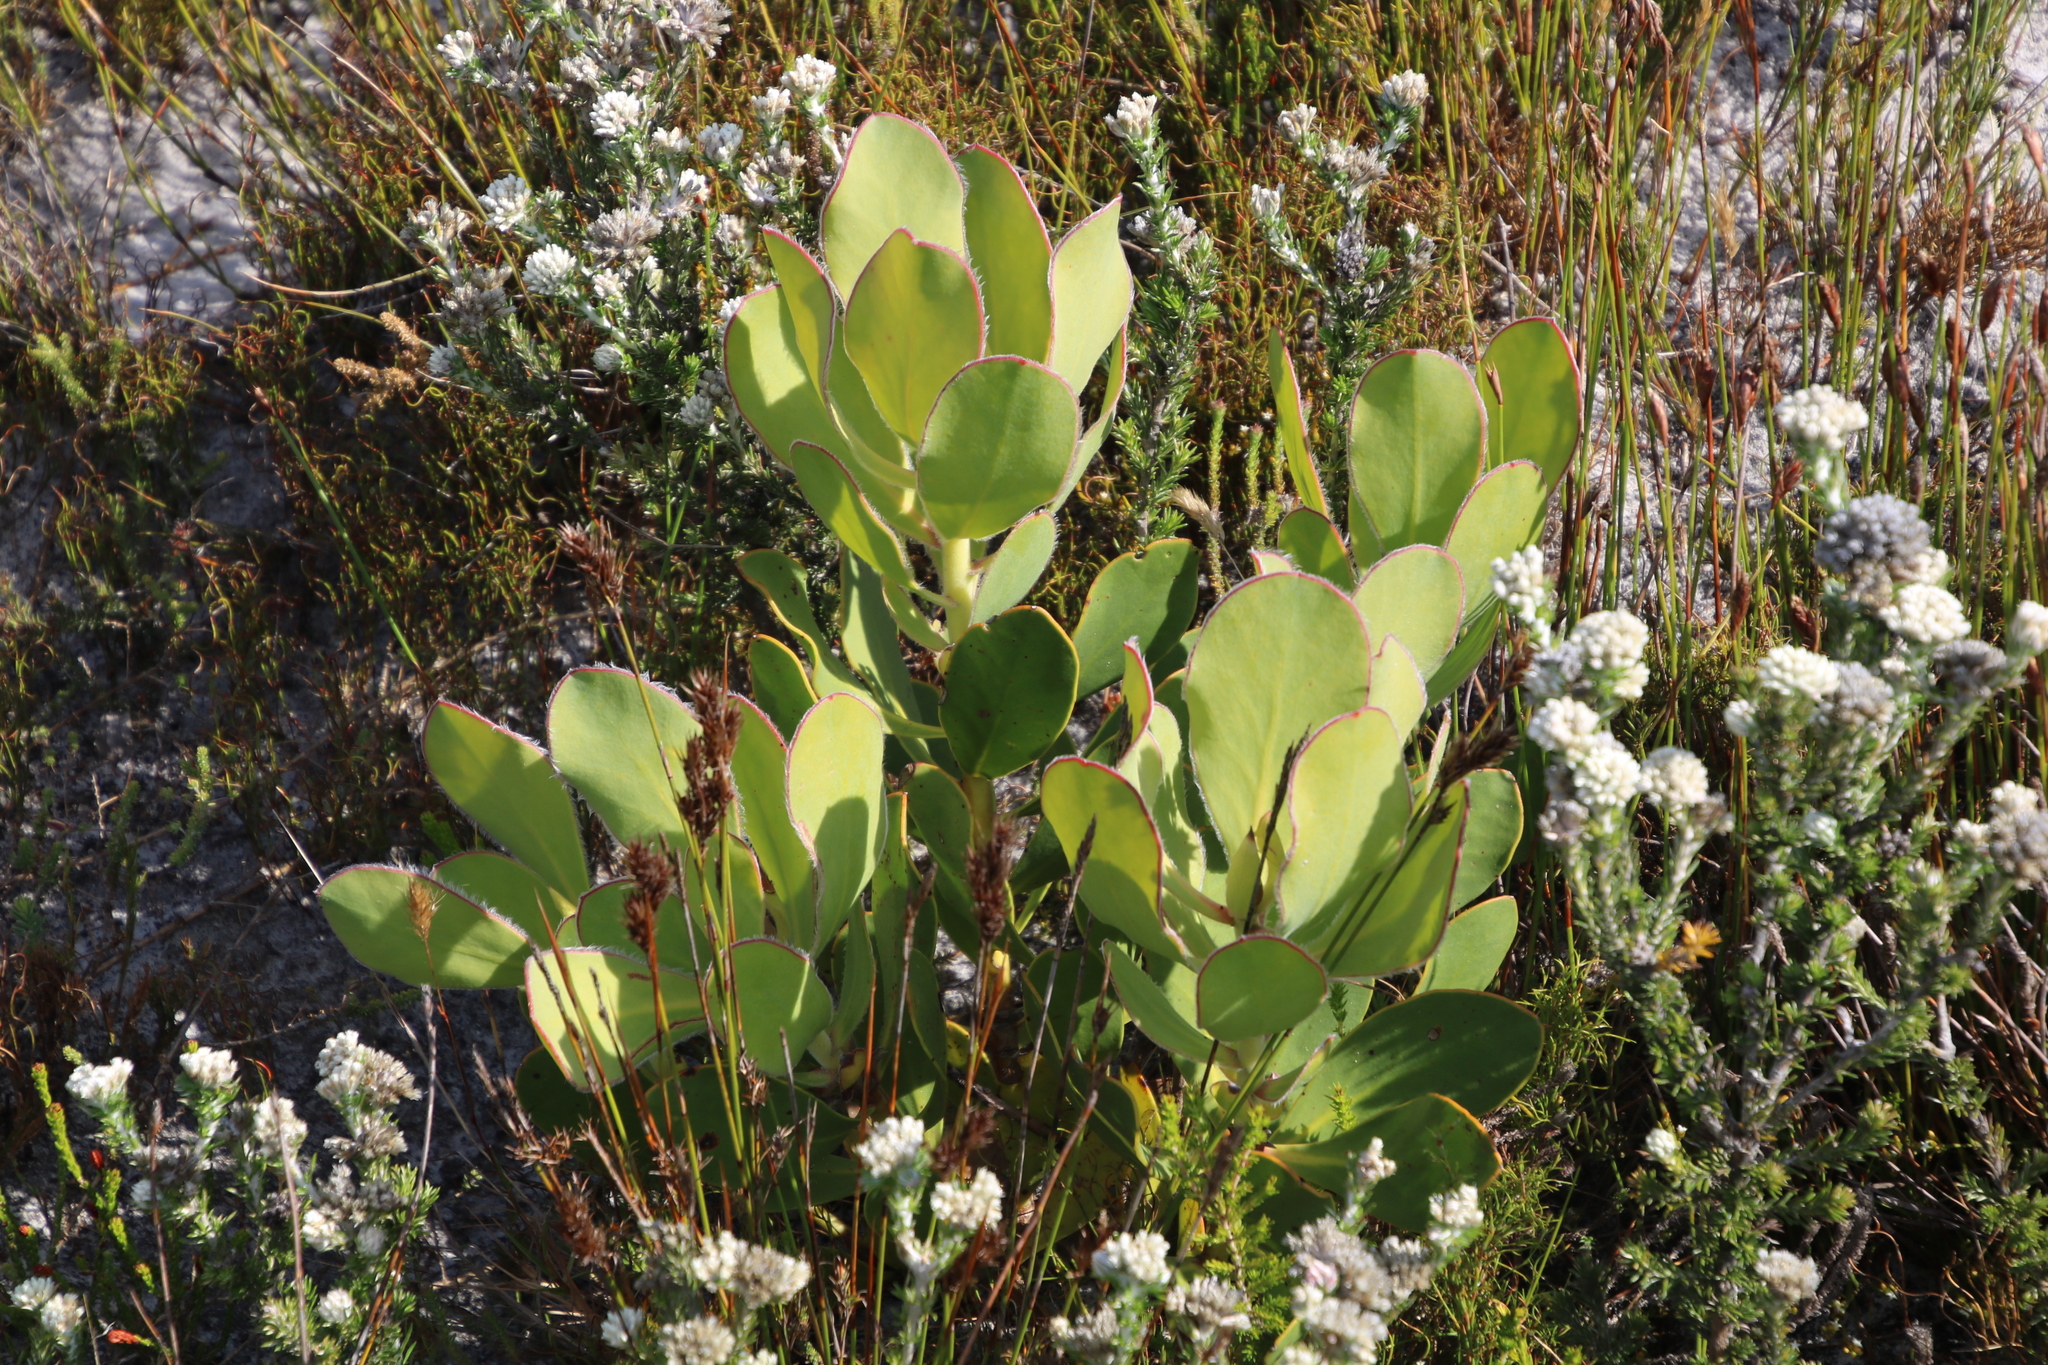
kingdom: Plantae
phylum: Tracheophyta
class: Magnoliopsida
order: Proteales
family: Proteaceae
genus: Protea
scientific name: Protea speciosa
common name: Brown-beard sugarbush
